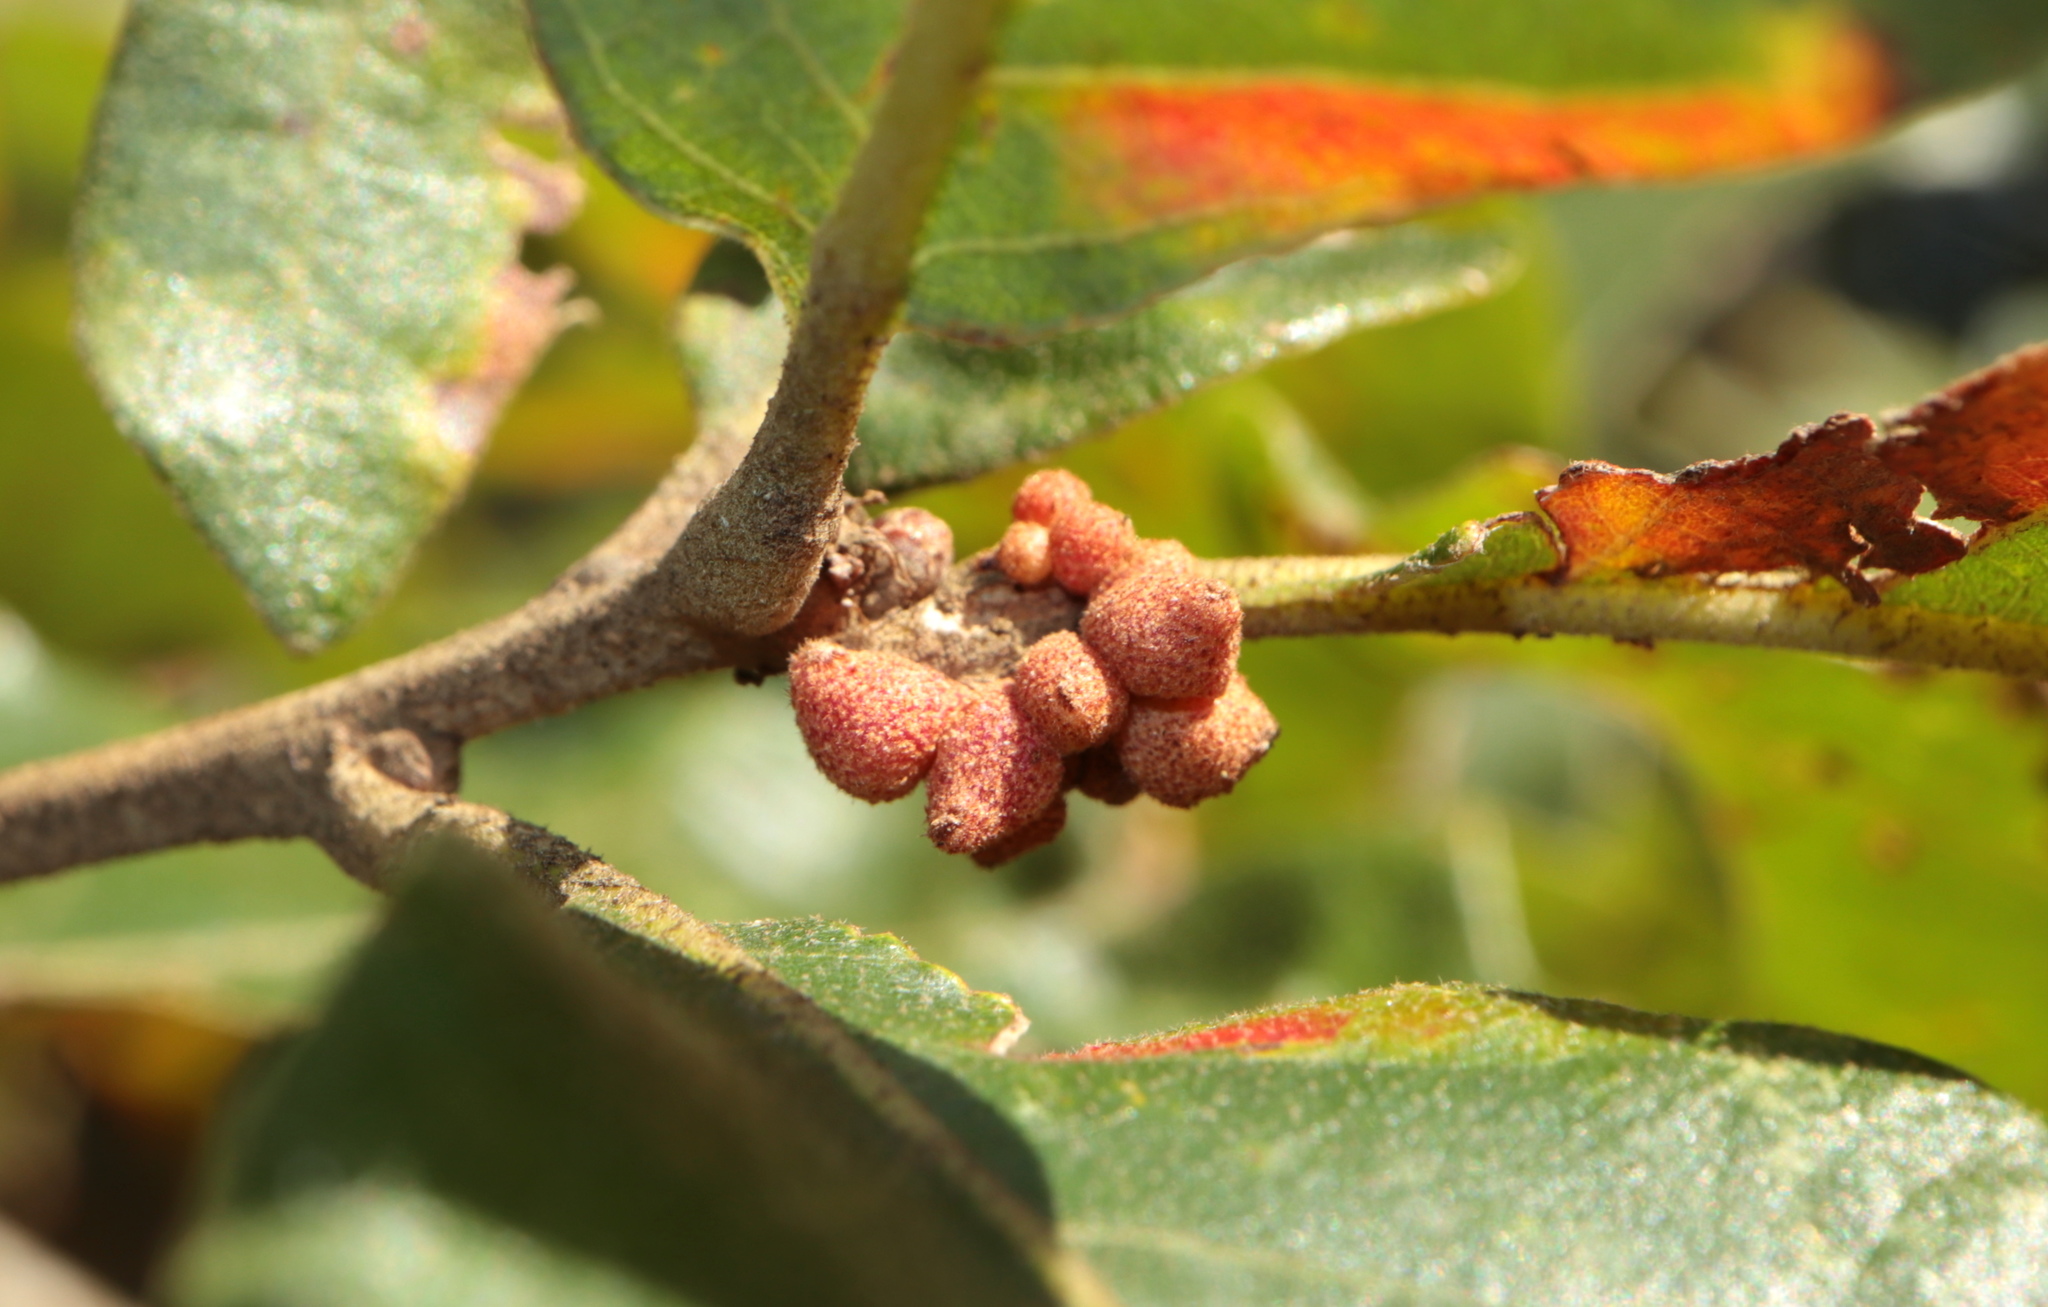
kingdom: Animalia
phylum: Arthropoda
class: Insecta
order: Hymenoptera
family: Cynipidae
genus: Andricus
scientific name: Andricus
